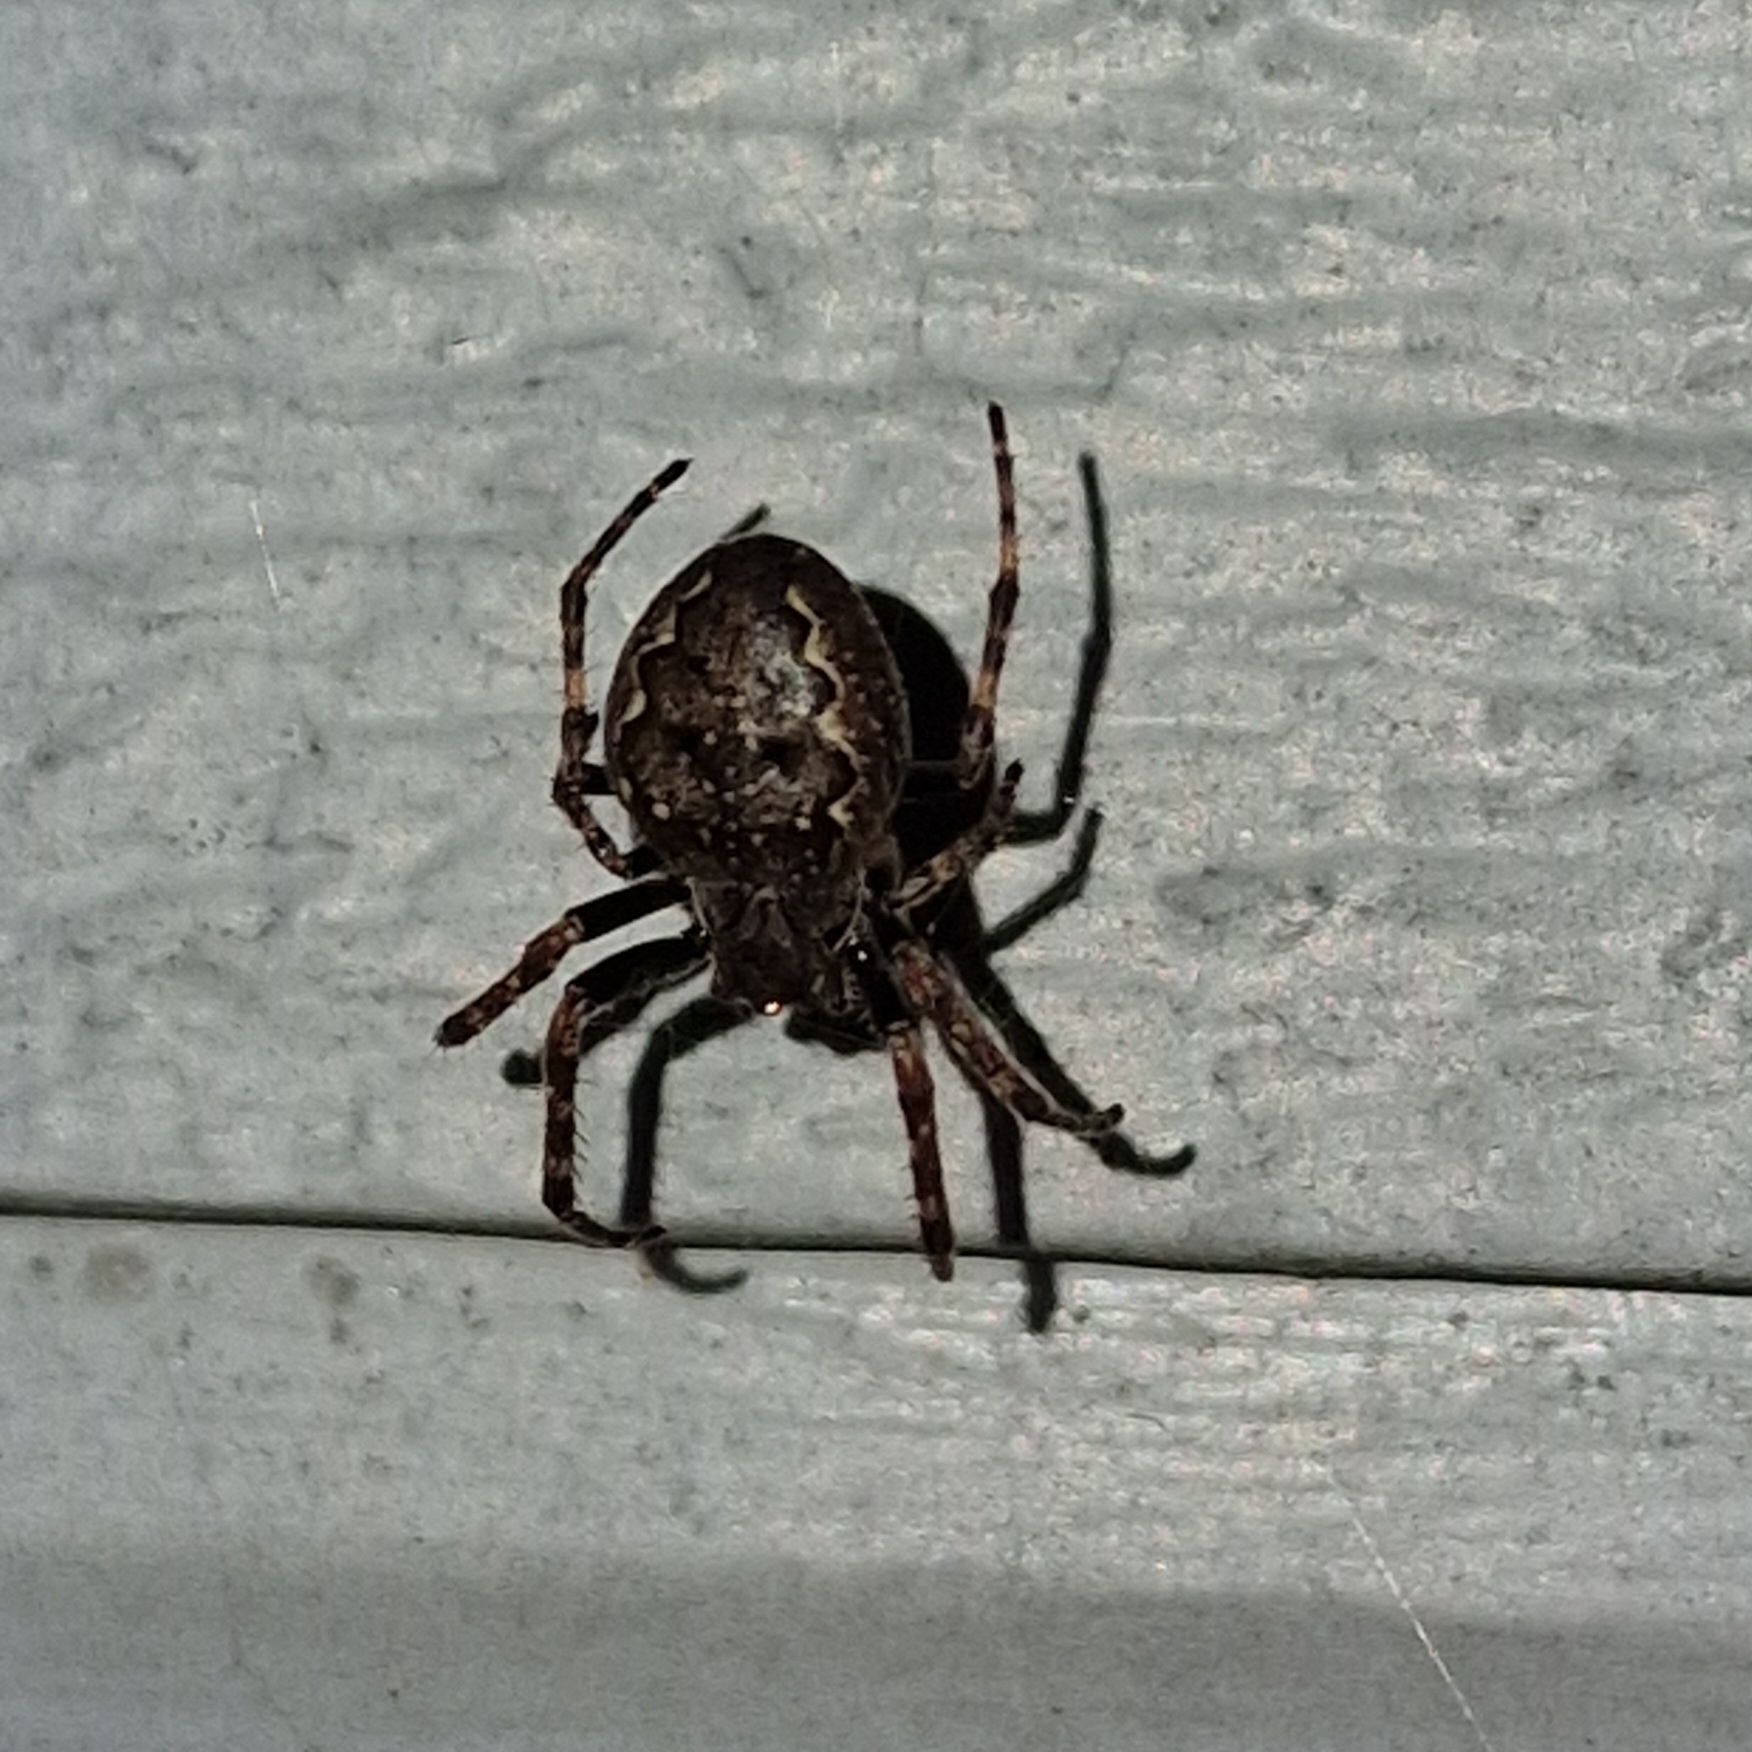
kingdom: Animalia
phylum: Arthropoda
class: Arachnida
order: Araneae
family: Araneidae
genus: Nuctenea
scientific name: Nuctenea umbratica
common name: Toad spider
